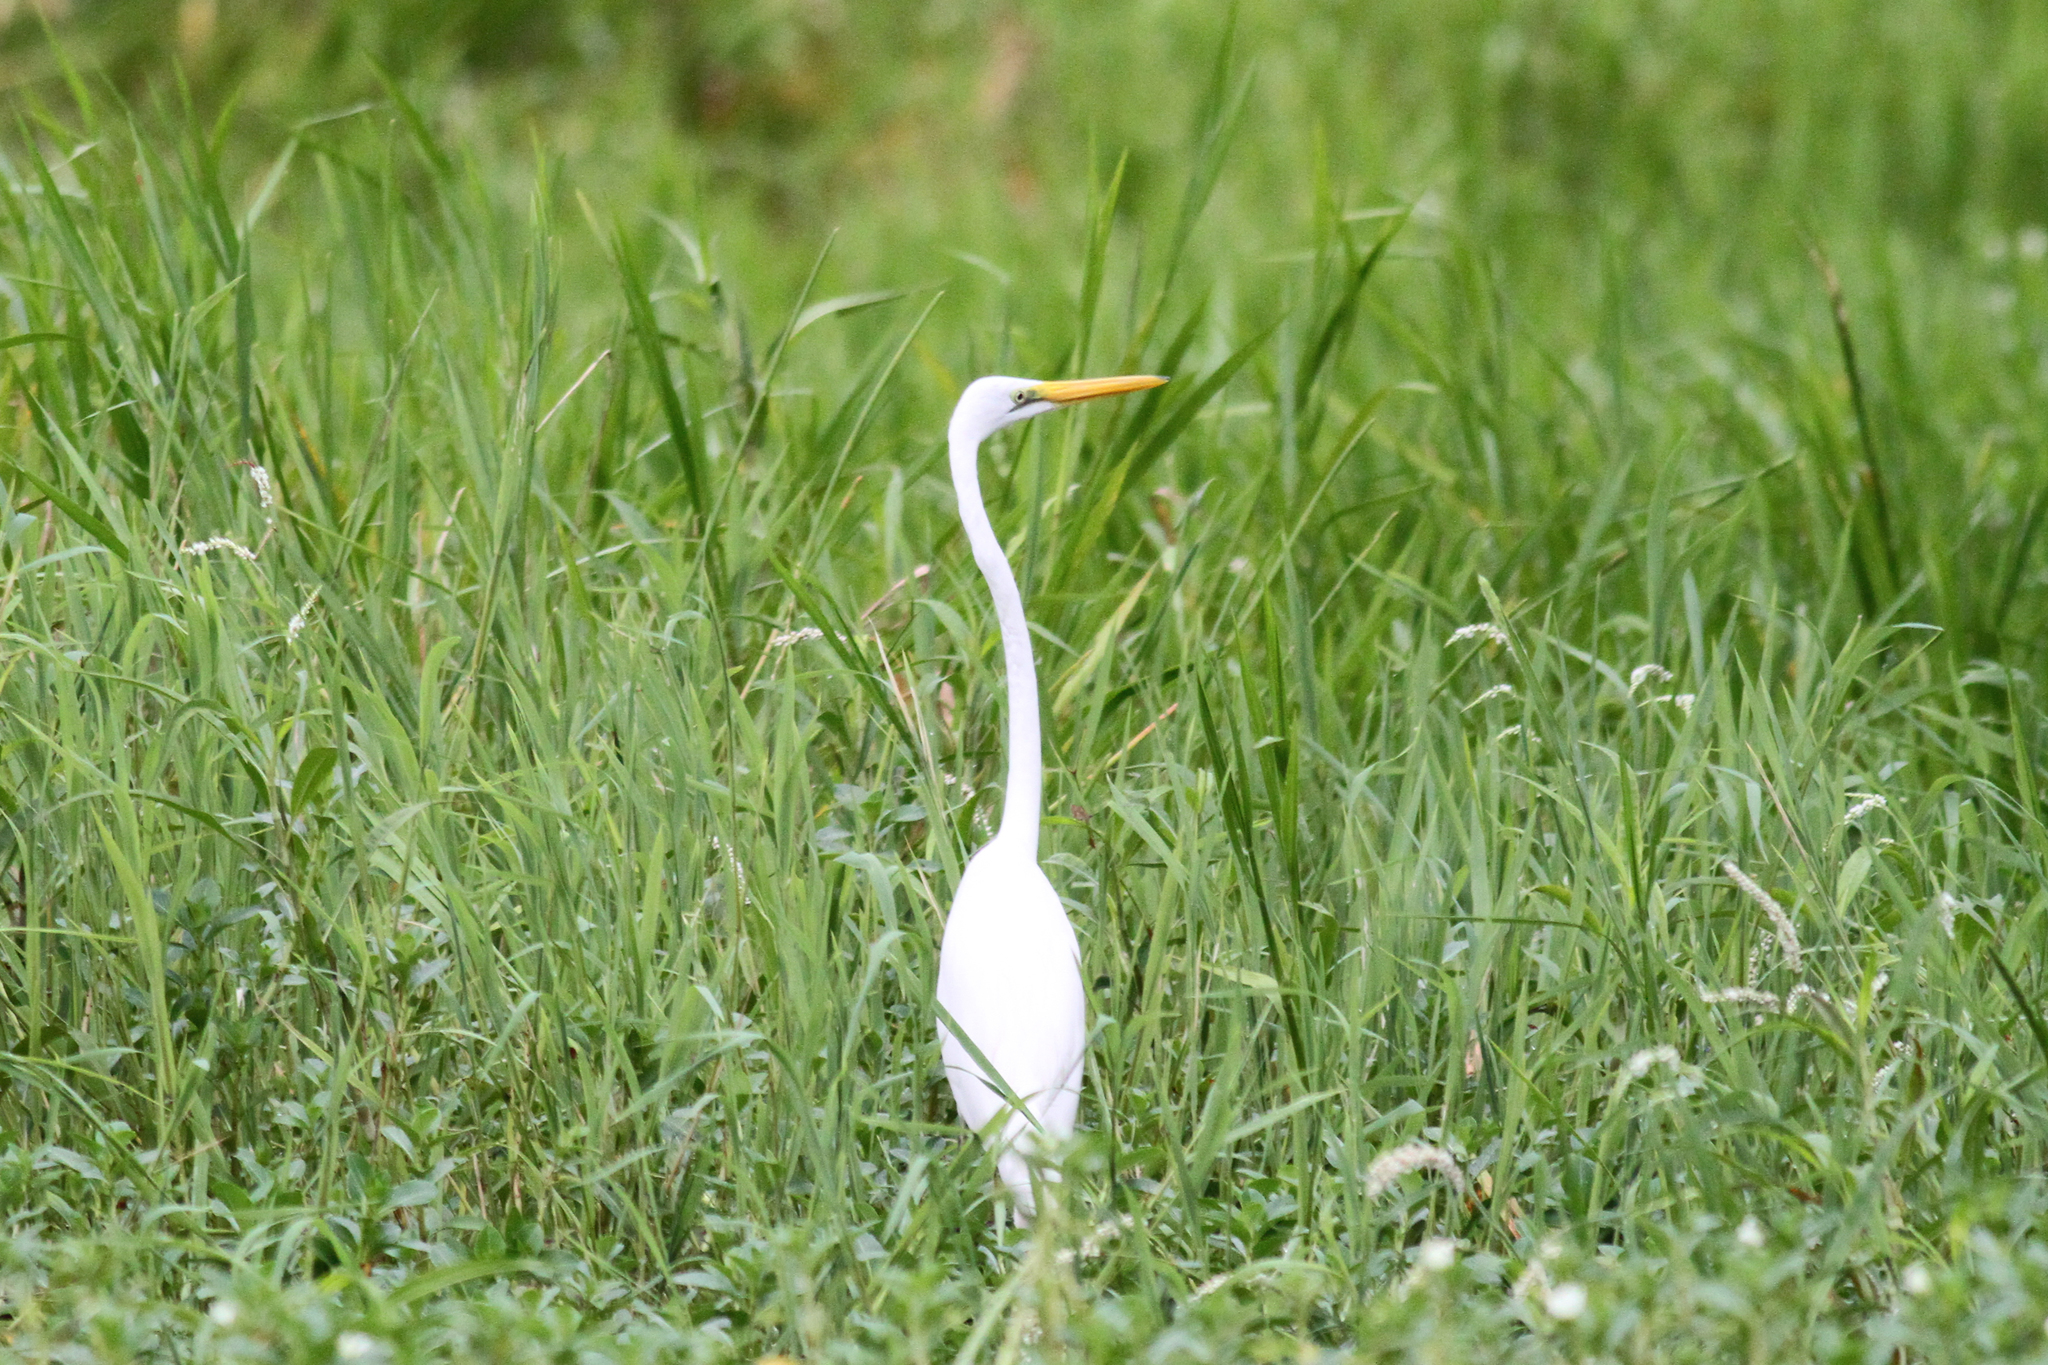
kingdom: Animalia
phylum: Chordata
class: Aves
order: Pelecaniformes
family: Ardeidae
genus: Ardea
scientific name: Ardea alba
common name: Great egret
